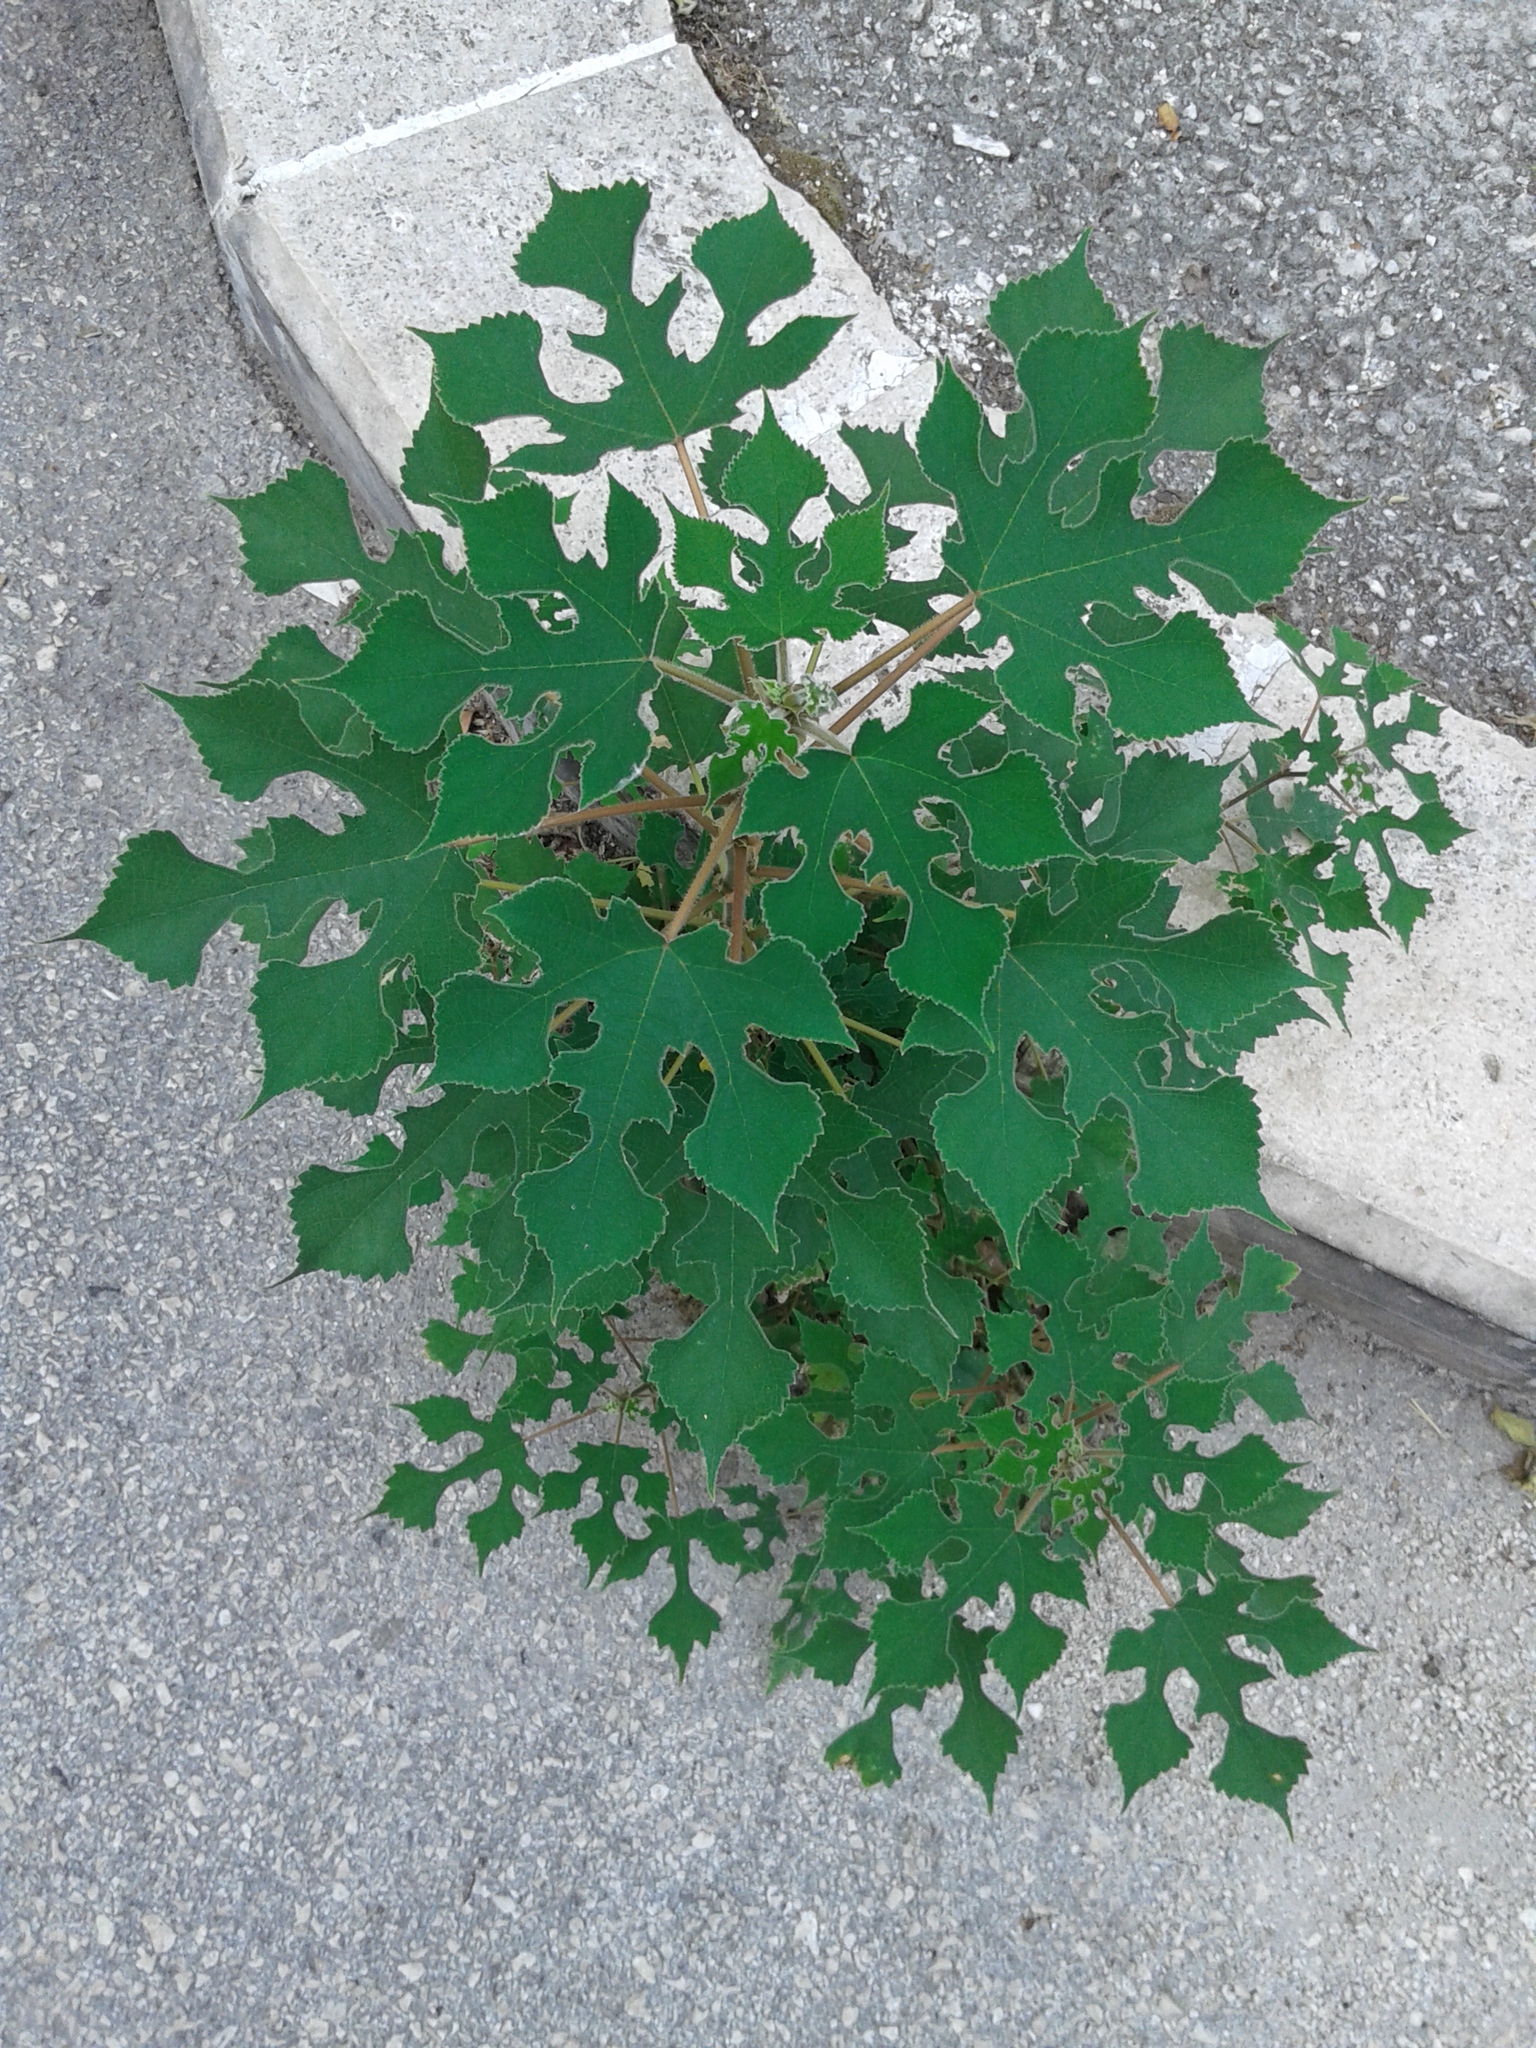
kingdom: Plantae
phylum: Tracheophyta
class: Magnoliopsida
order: Rosales
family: Moraceae
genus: Broussonetia
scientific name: Broussonetia papyrifera
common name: Paper mulberry
